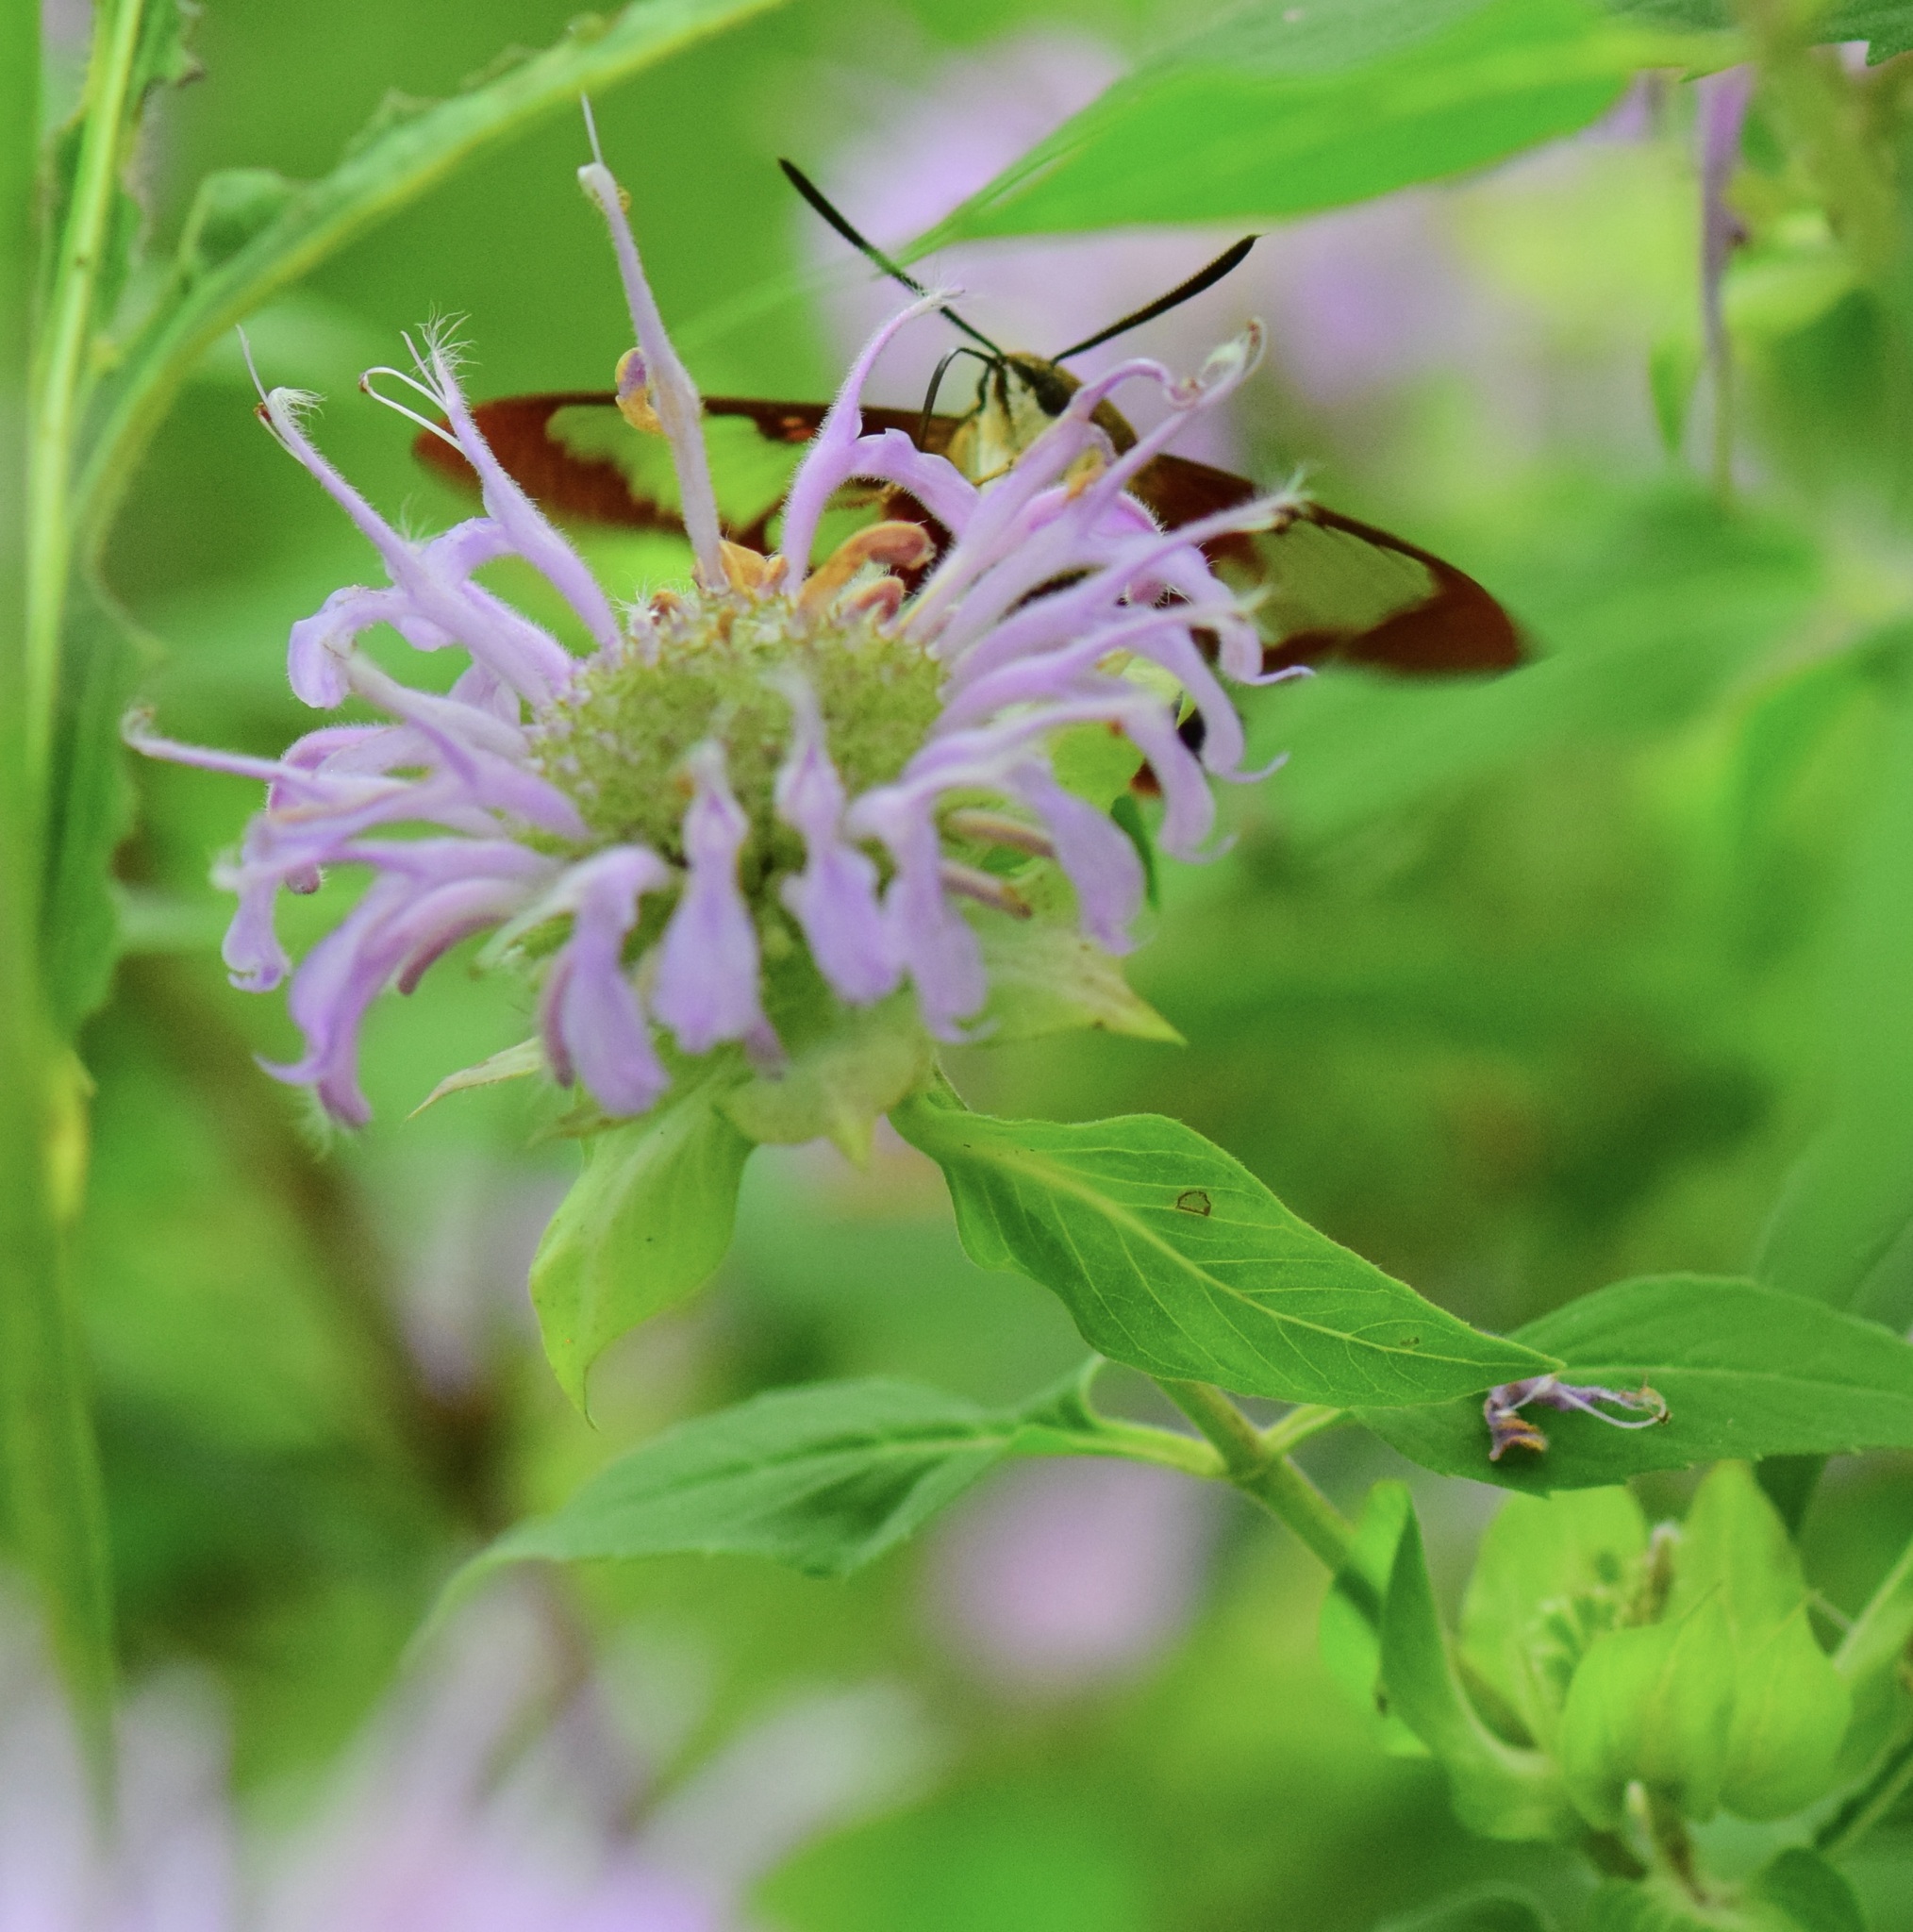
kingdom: Animalia
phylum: Arthropoda
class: Insecta
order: Lepidoptera
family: Sphingidae
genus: Hemaris
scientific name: Hemaris thysbe
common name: Common clear-wing
